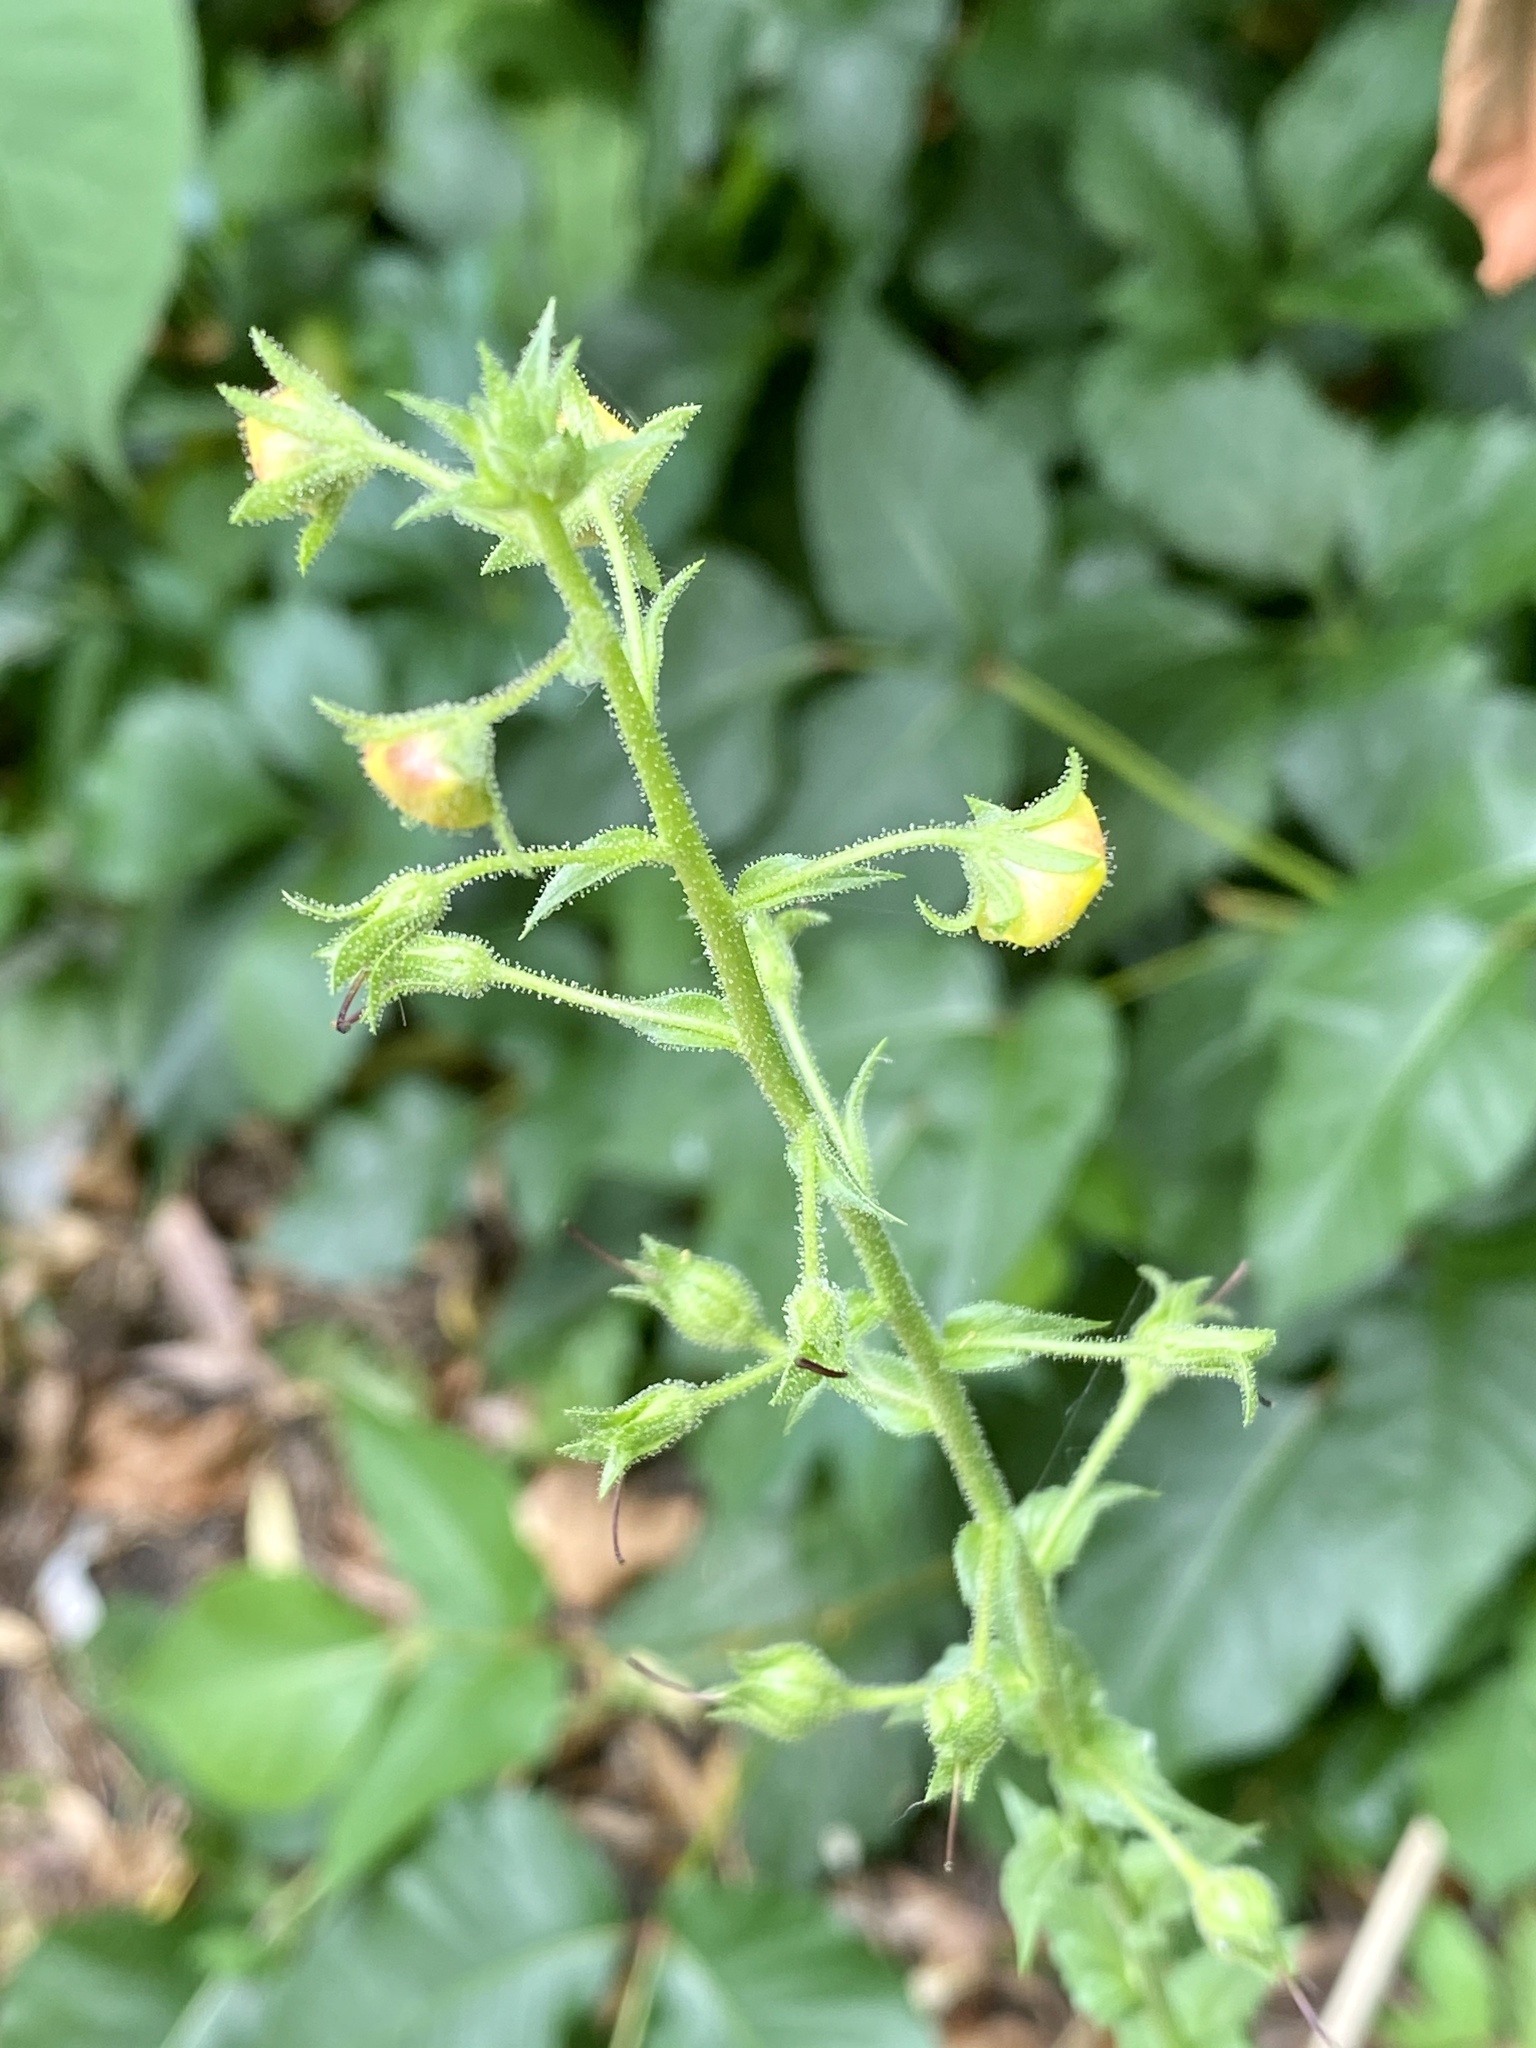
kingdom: Plantae
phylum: Tracheophyta
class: Magnoliopsida
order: Lamiales
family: Scrophulariaceae
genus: Verbascum
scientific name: Verbascum blattaria
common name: Moth mullein
